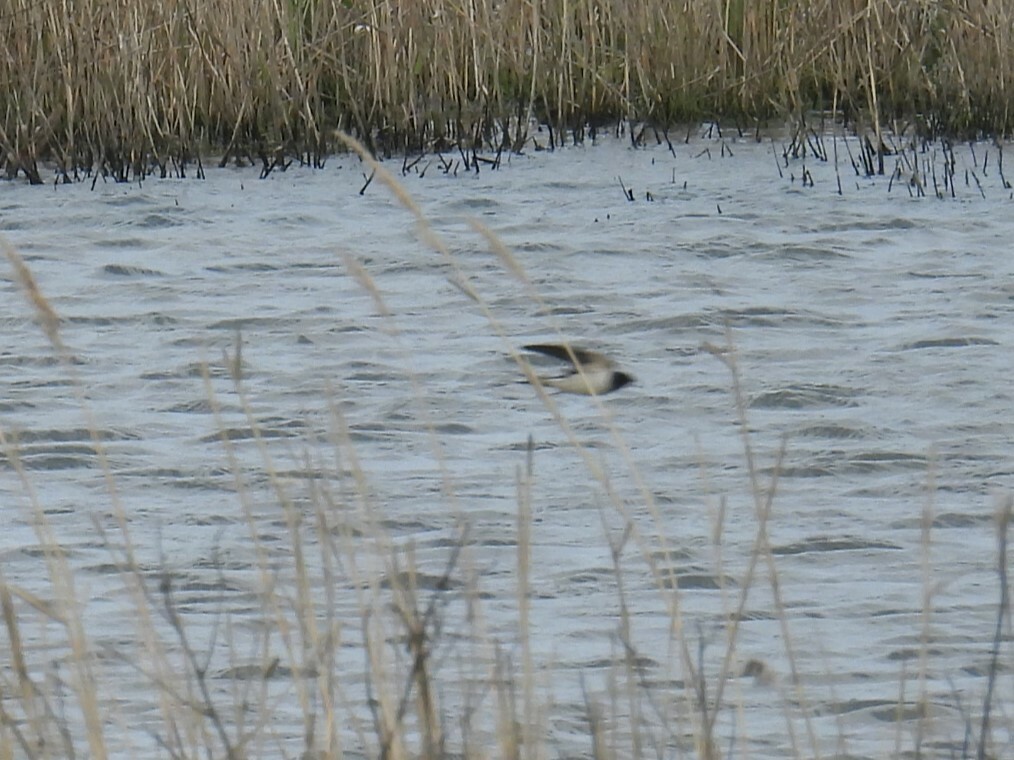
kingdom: Animalia
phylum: Chordata
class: Aves
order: Passeriformes
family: Hirundinidae
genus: Hirundo
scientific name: Hirundo rustica
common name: Barn swallow
